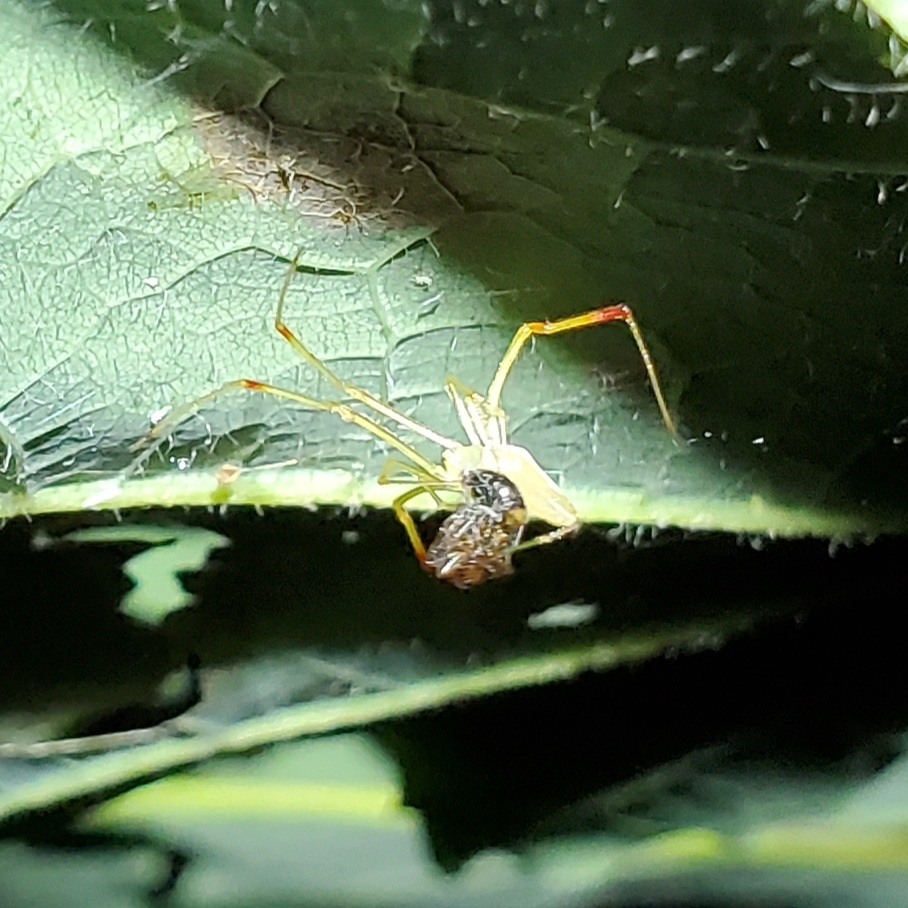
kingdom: Animalia
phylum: Arthropoda
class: Arachnida
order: Araneae
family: Theridiidae
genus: Spintharus
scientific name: Spintharus flavidus
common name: Cobweb spiders
